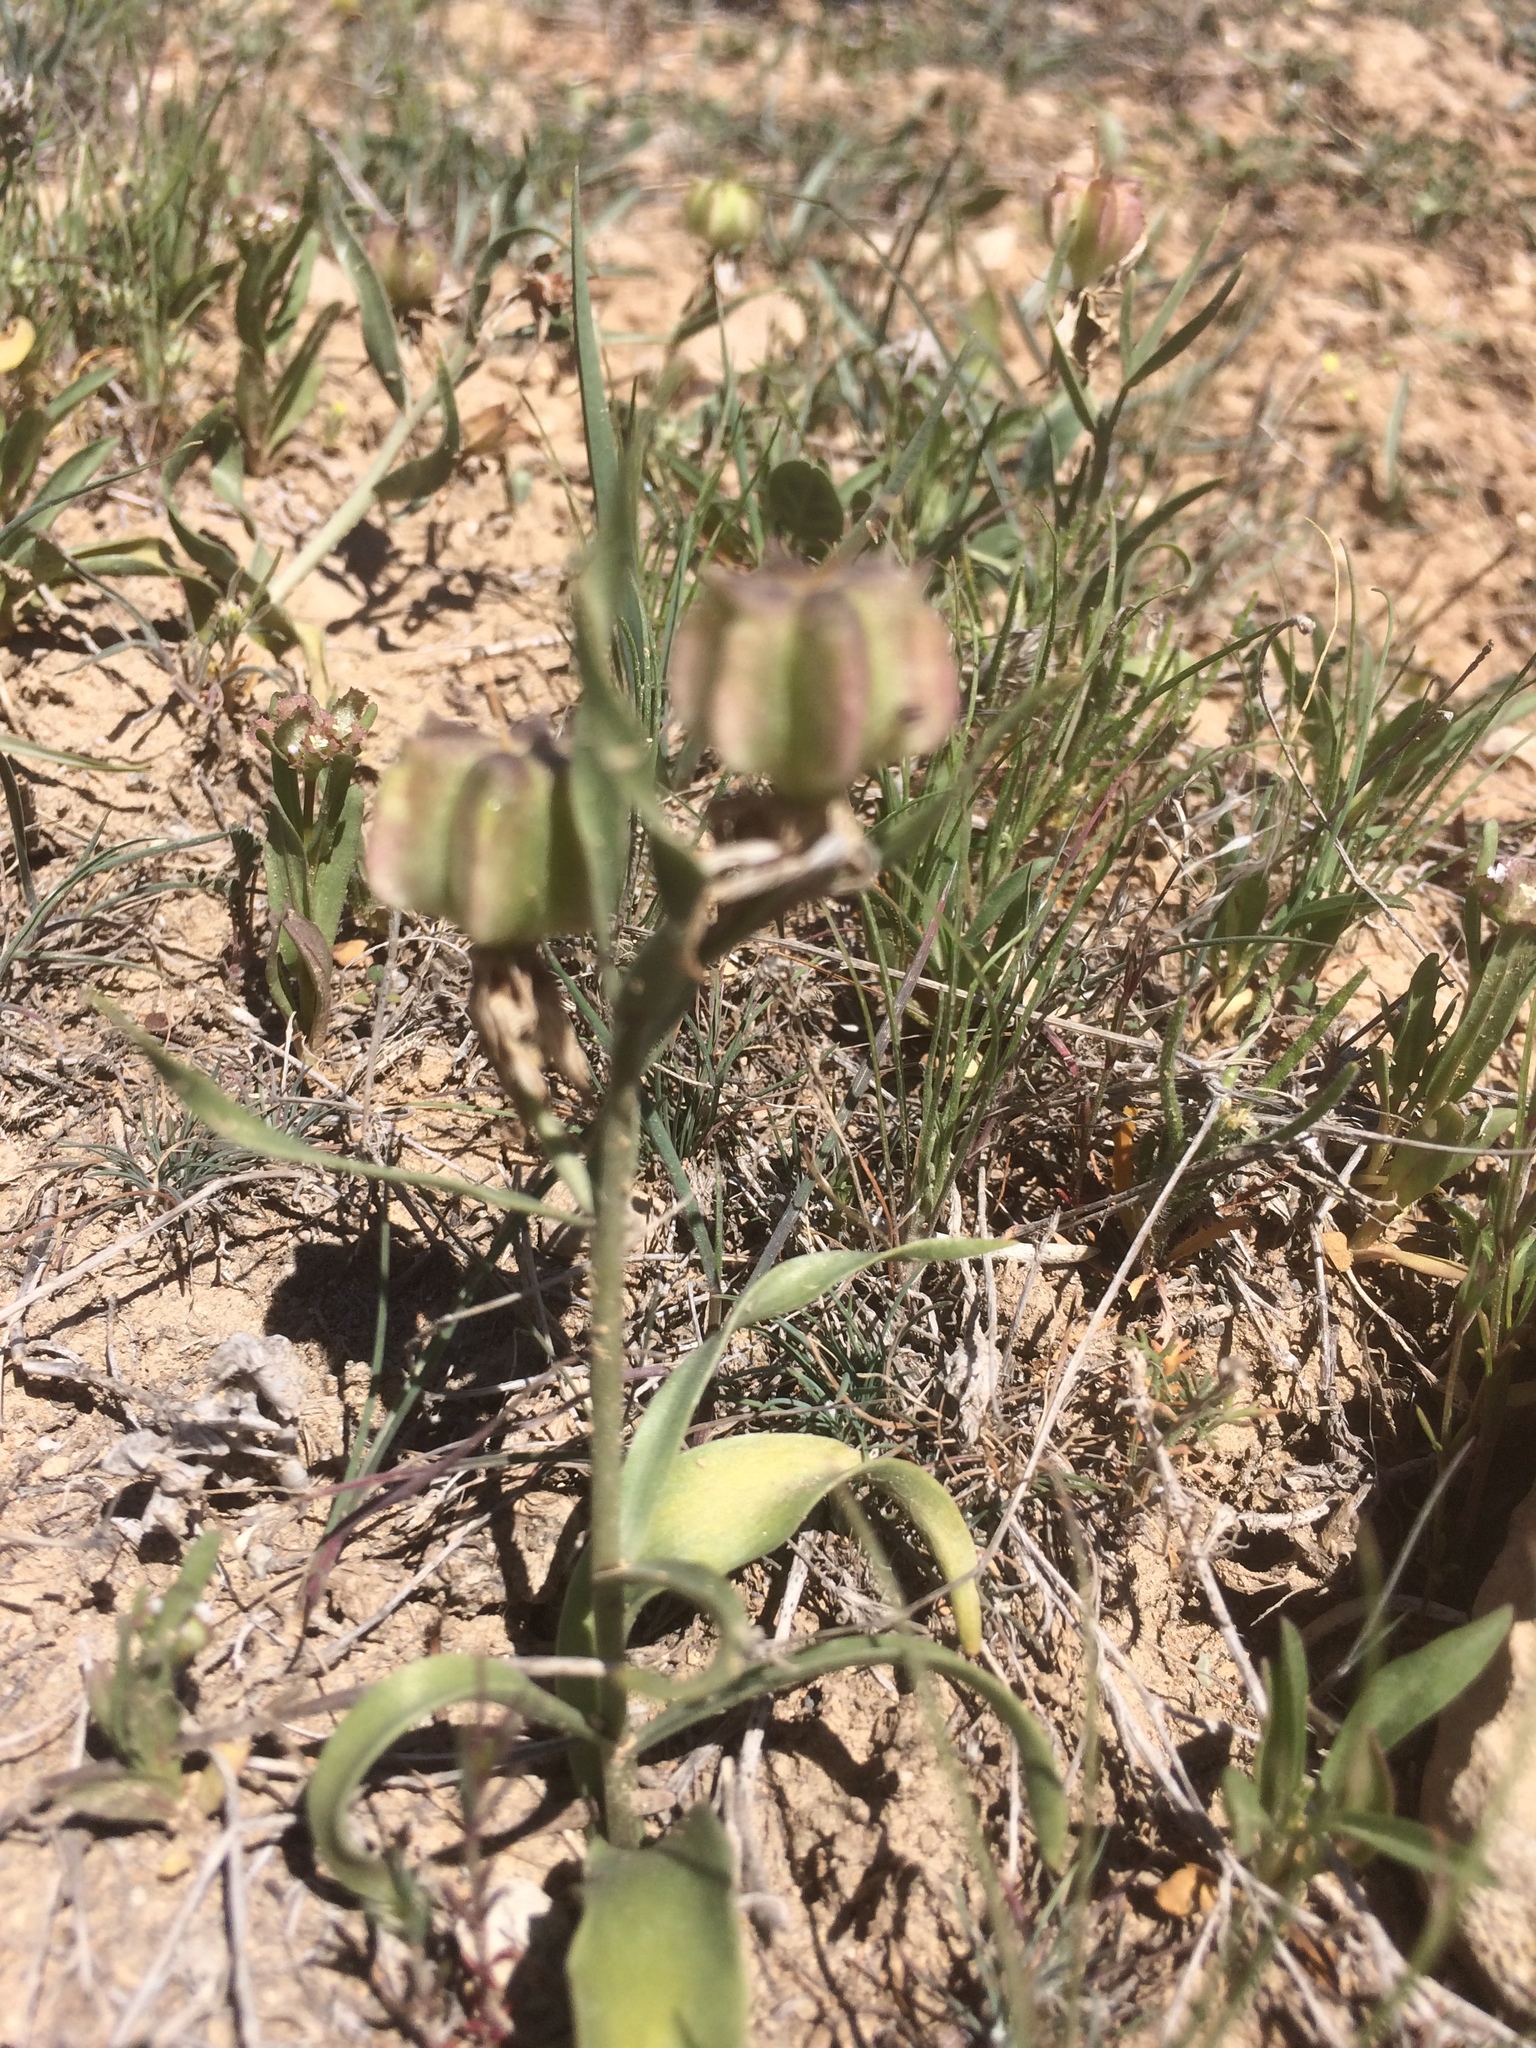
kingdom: Plantae
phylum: Tracheophyta
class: Liliopsida
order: Liliales
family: Liliaceae
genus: Fritillaria
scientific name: Fritillaria gibbosa
